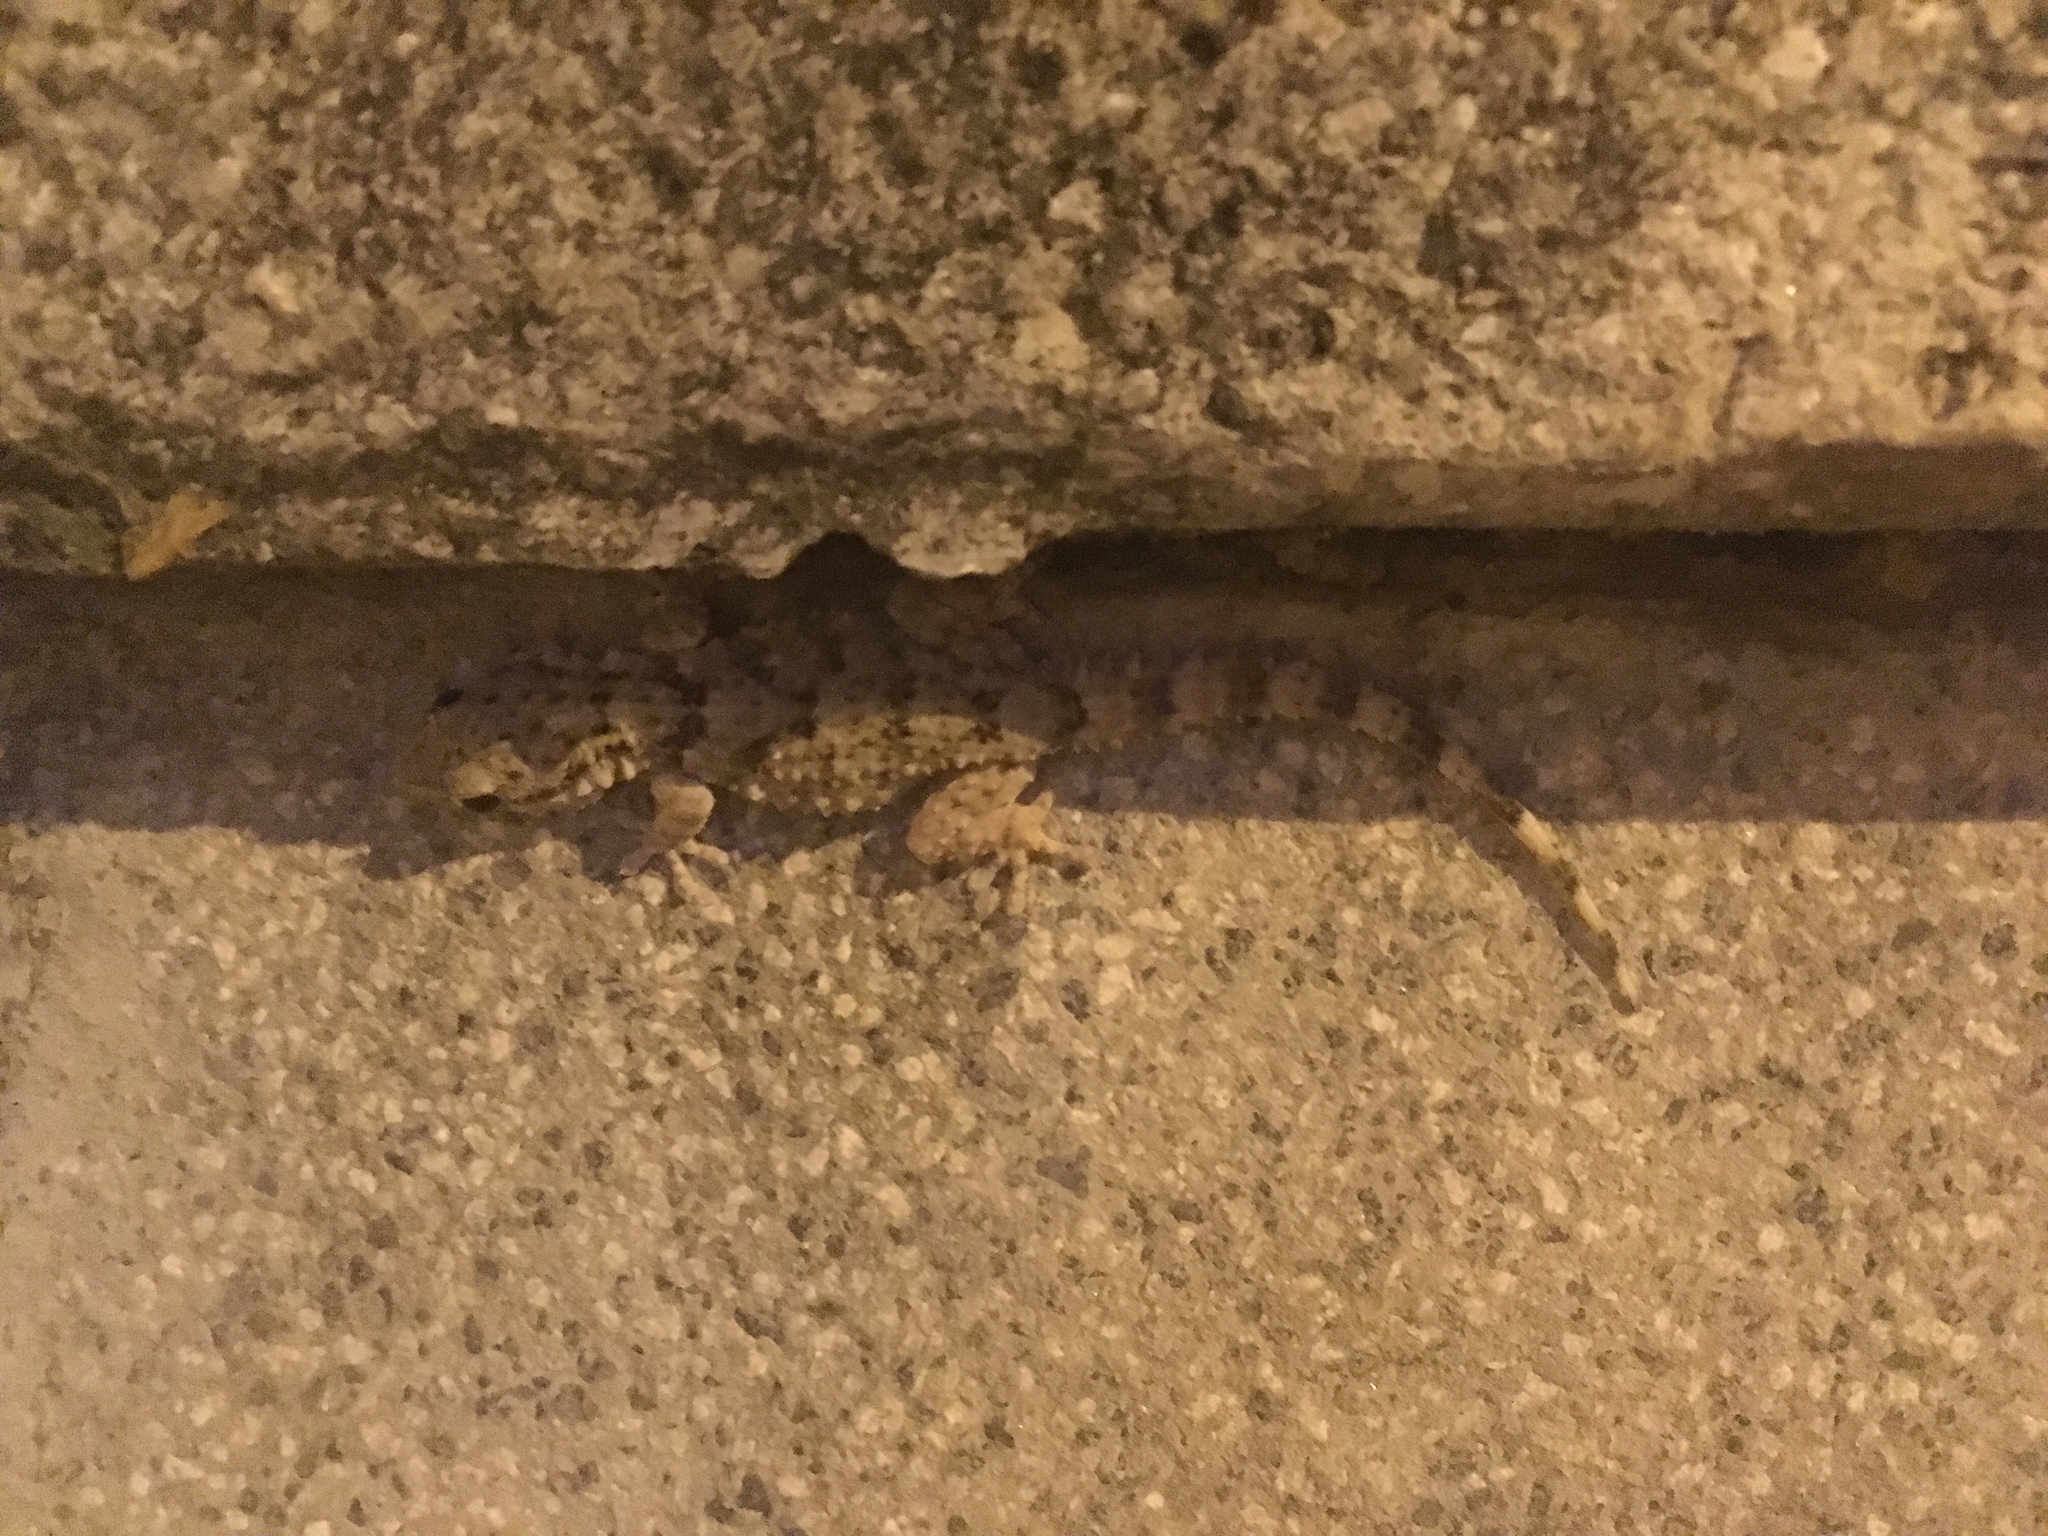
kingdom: Animalia
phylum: Chordata
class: Squamata
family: Phyllodactylidae
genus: Tarentola
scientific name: Tarentola mauritanica
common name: Moorish gecko
